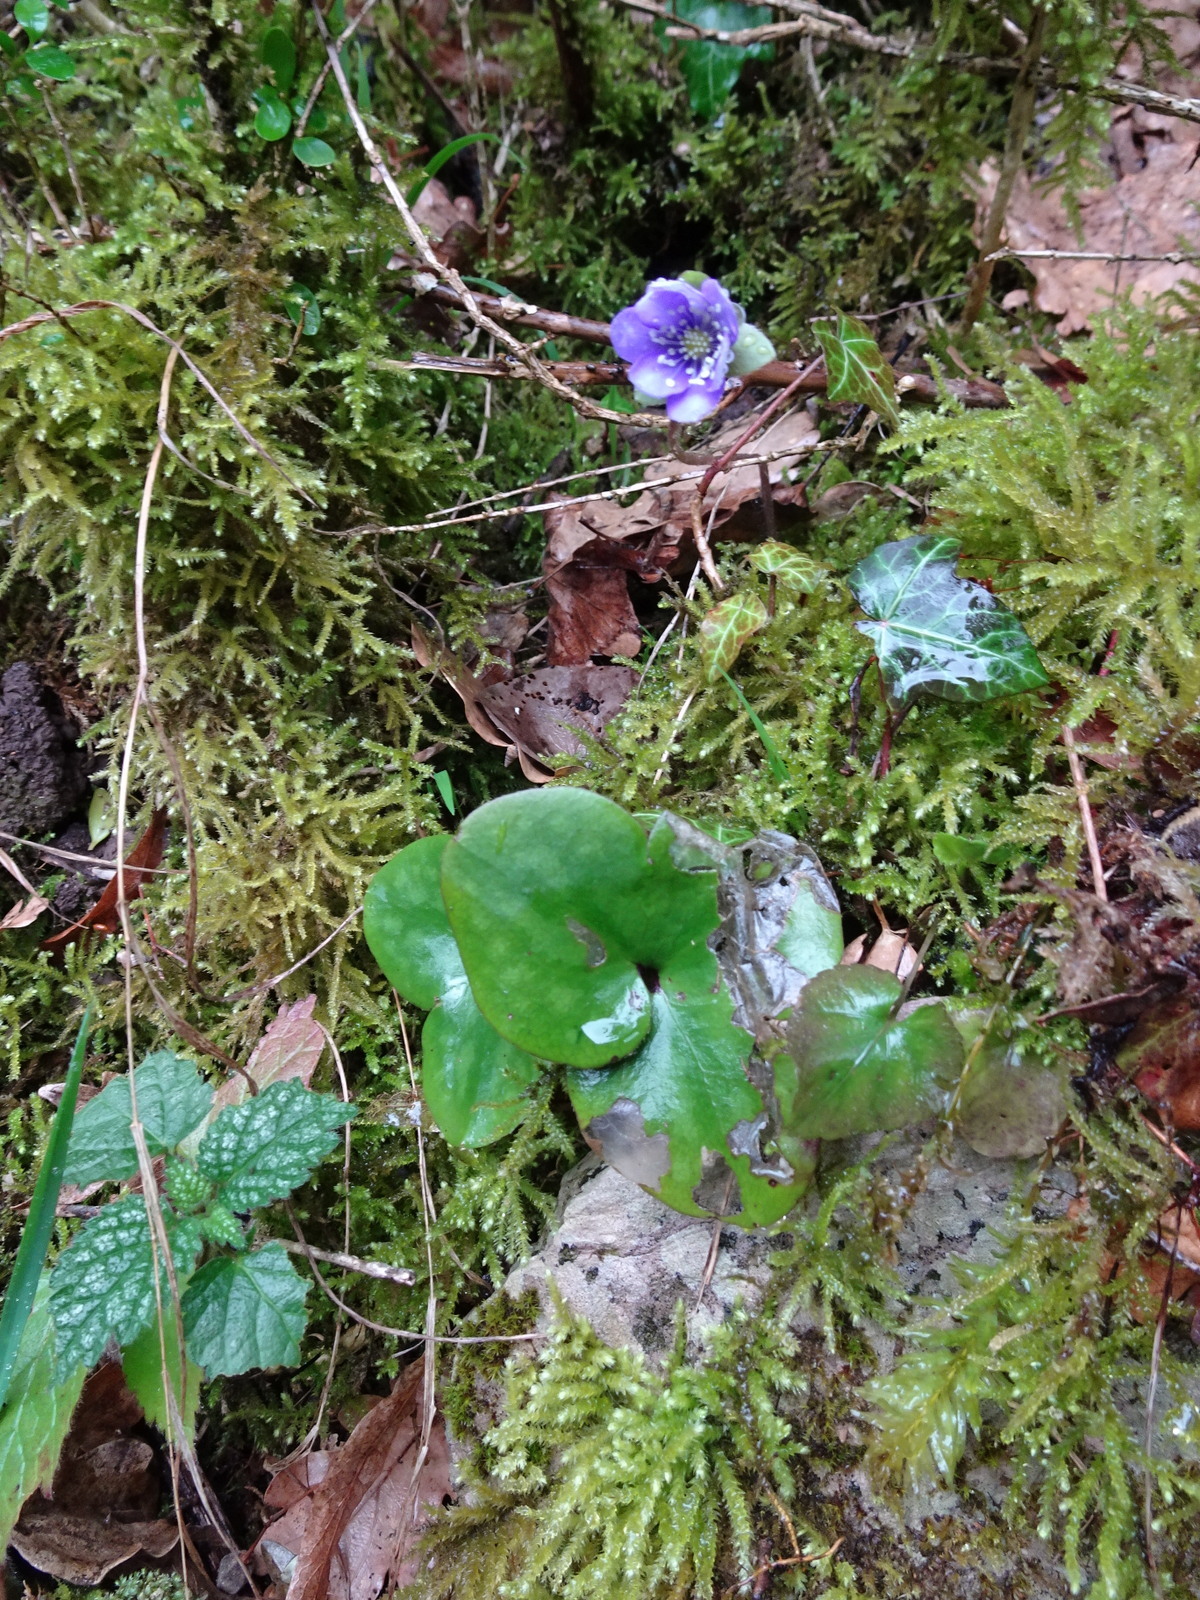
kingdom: Plantae
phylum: Tracheophyta
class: Magnoliopsida
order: Ranunculales
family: Ranunculaceae
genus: Hepatica
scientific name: Hepatica nobilis
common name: Liverleaf
